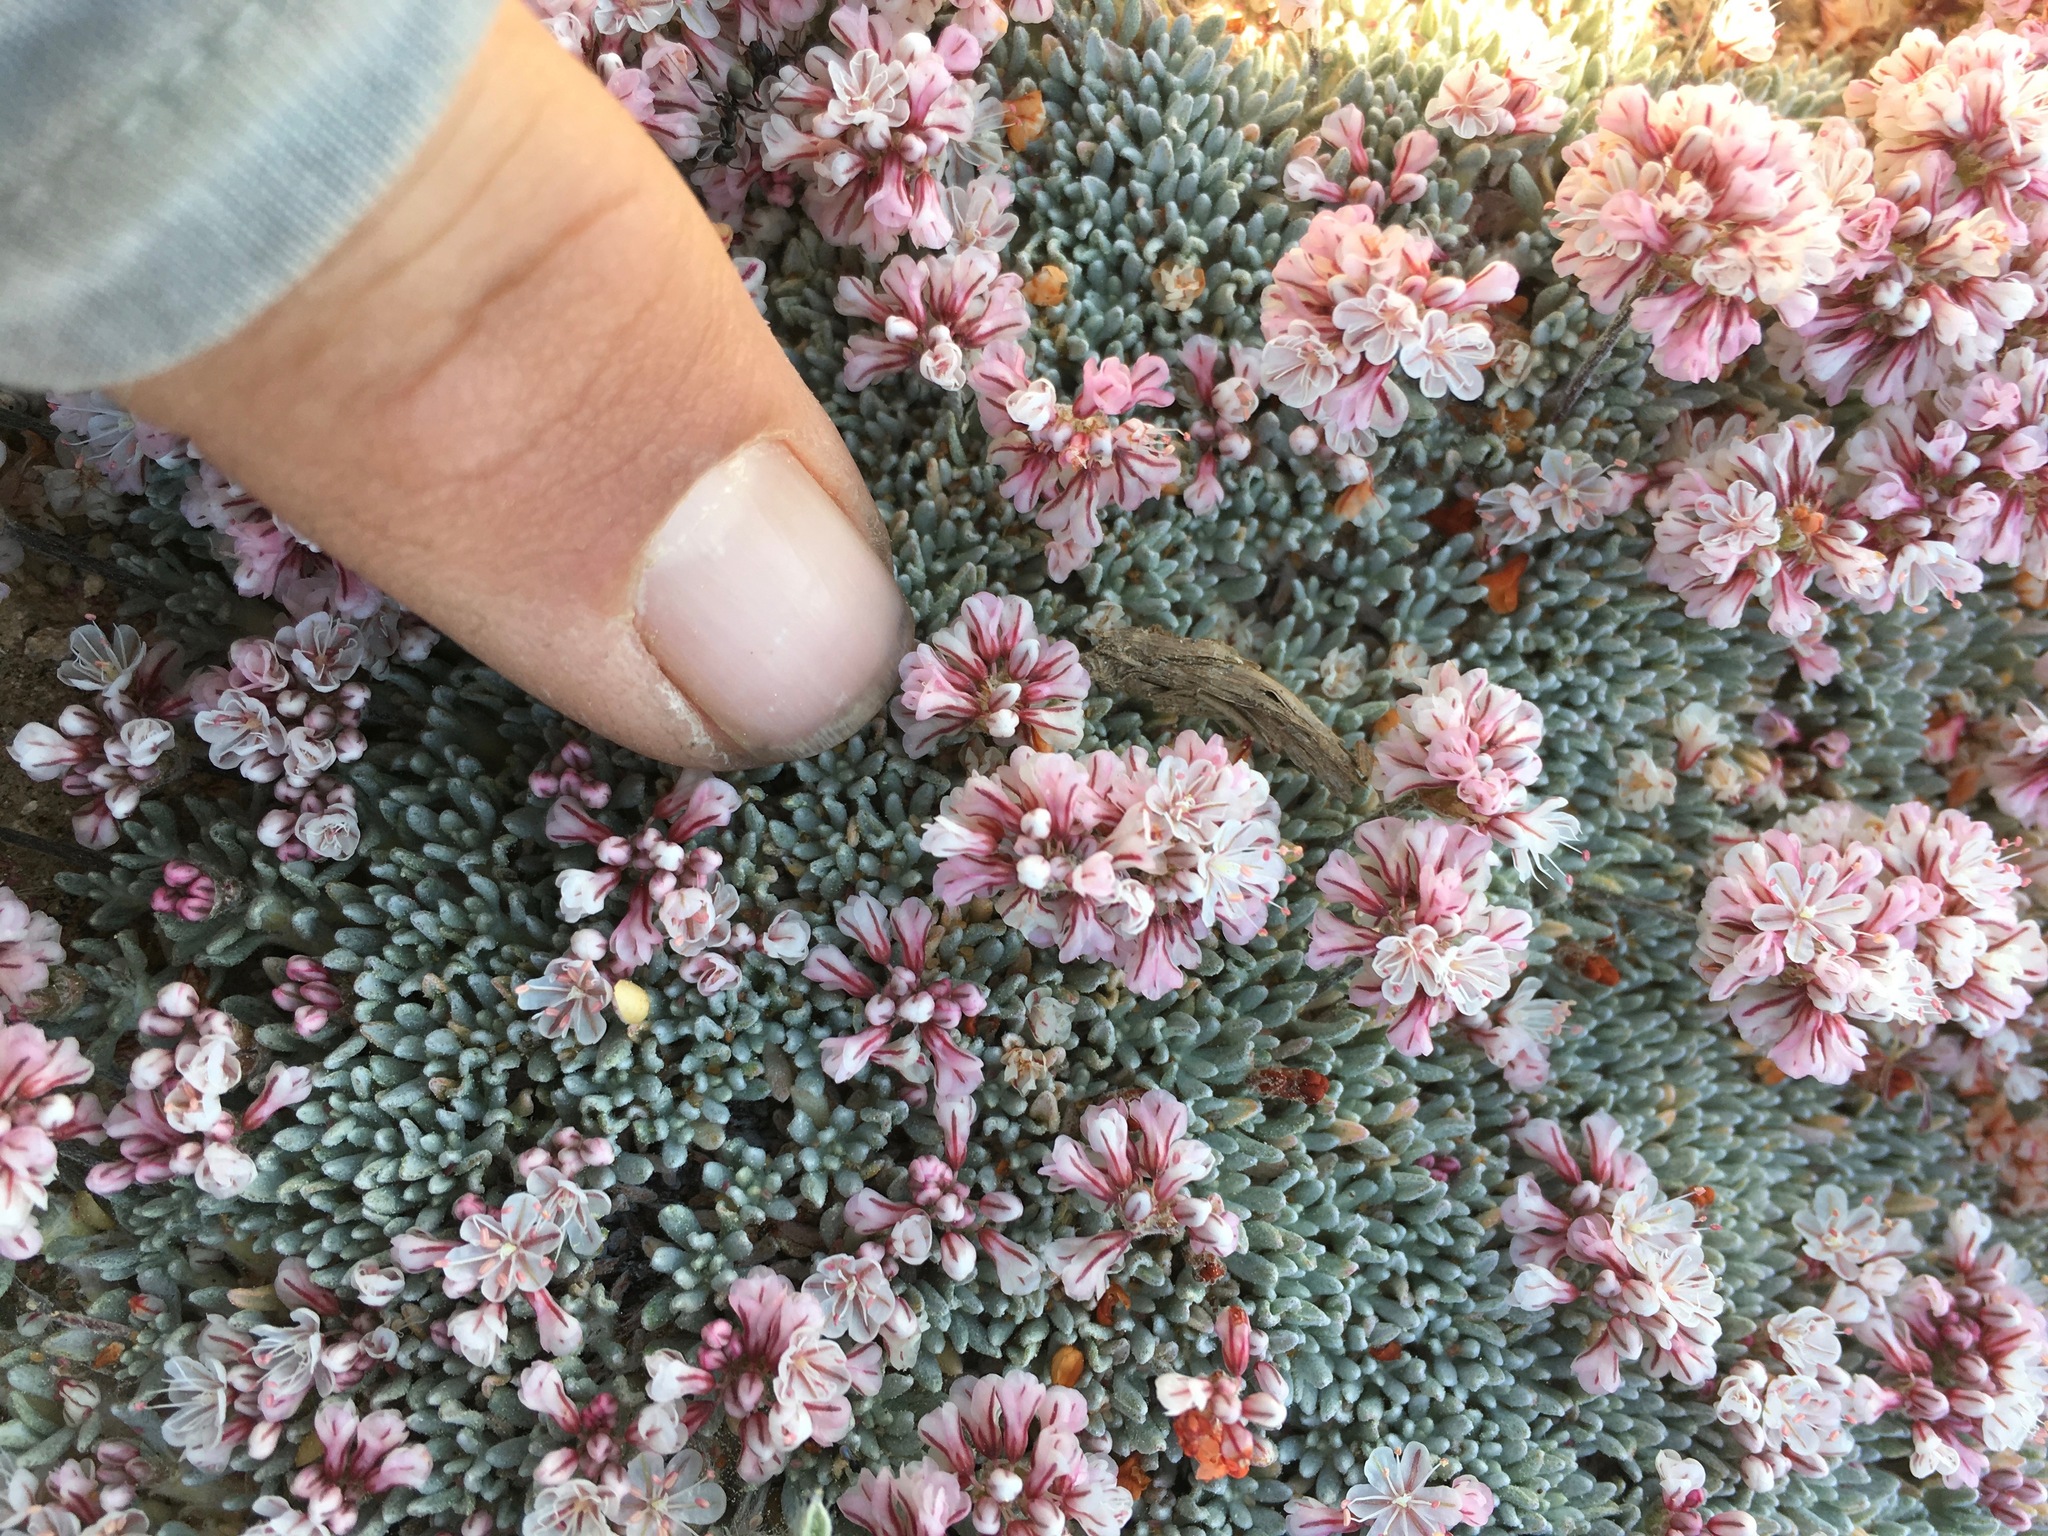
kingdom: Plantae
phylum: Tracheophyta
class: Magnoliopsida
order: Caryophyllales
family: Polygonaceae
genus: Eriogonum
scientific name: Eriogonum kennedyi
